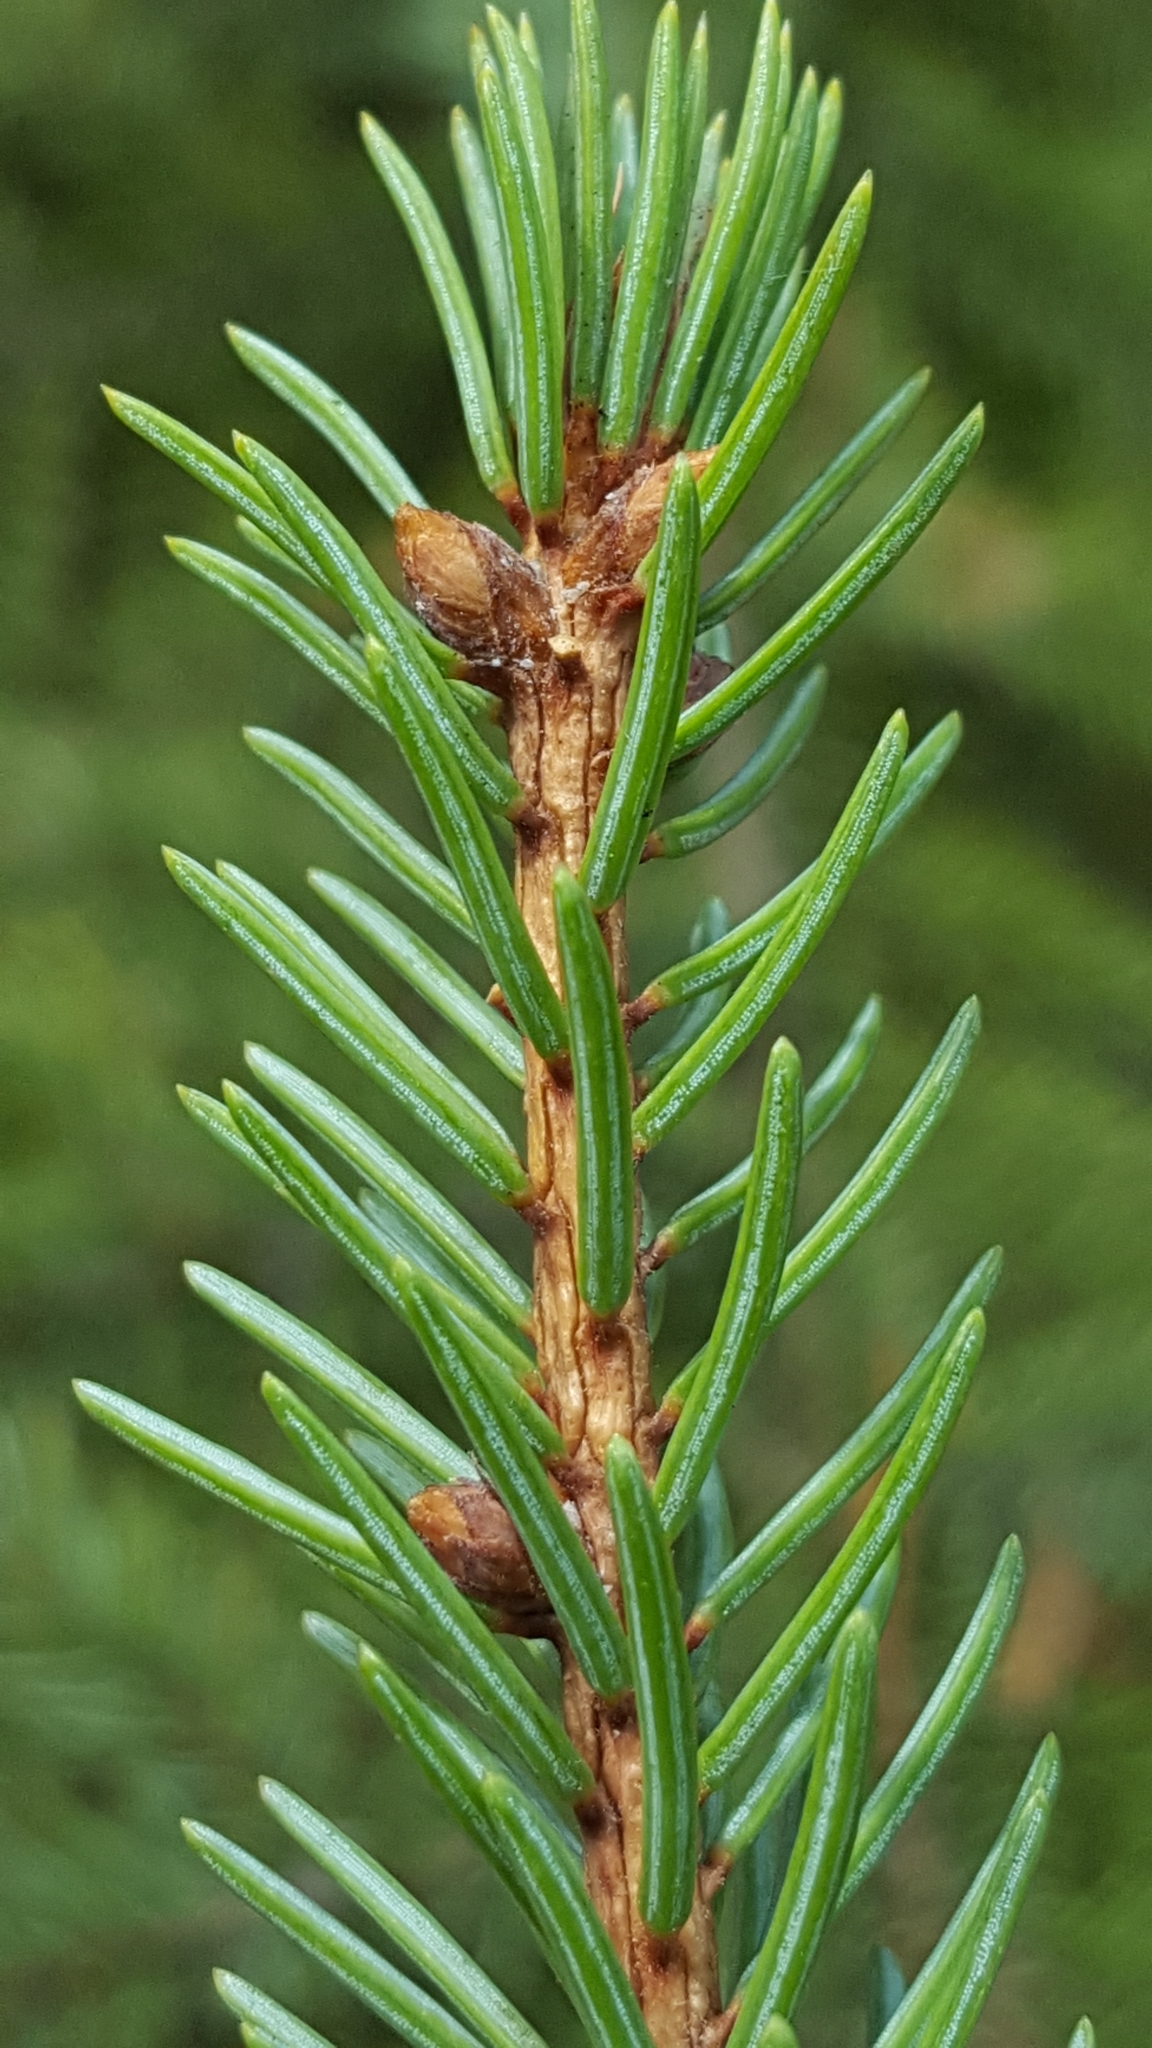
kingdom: Plantae
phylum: Tracheophyta
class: Pinopsida
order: Pinales
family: Pinaceae
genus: Picea
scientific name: Picea glauca
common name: White spruce
